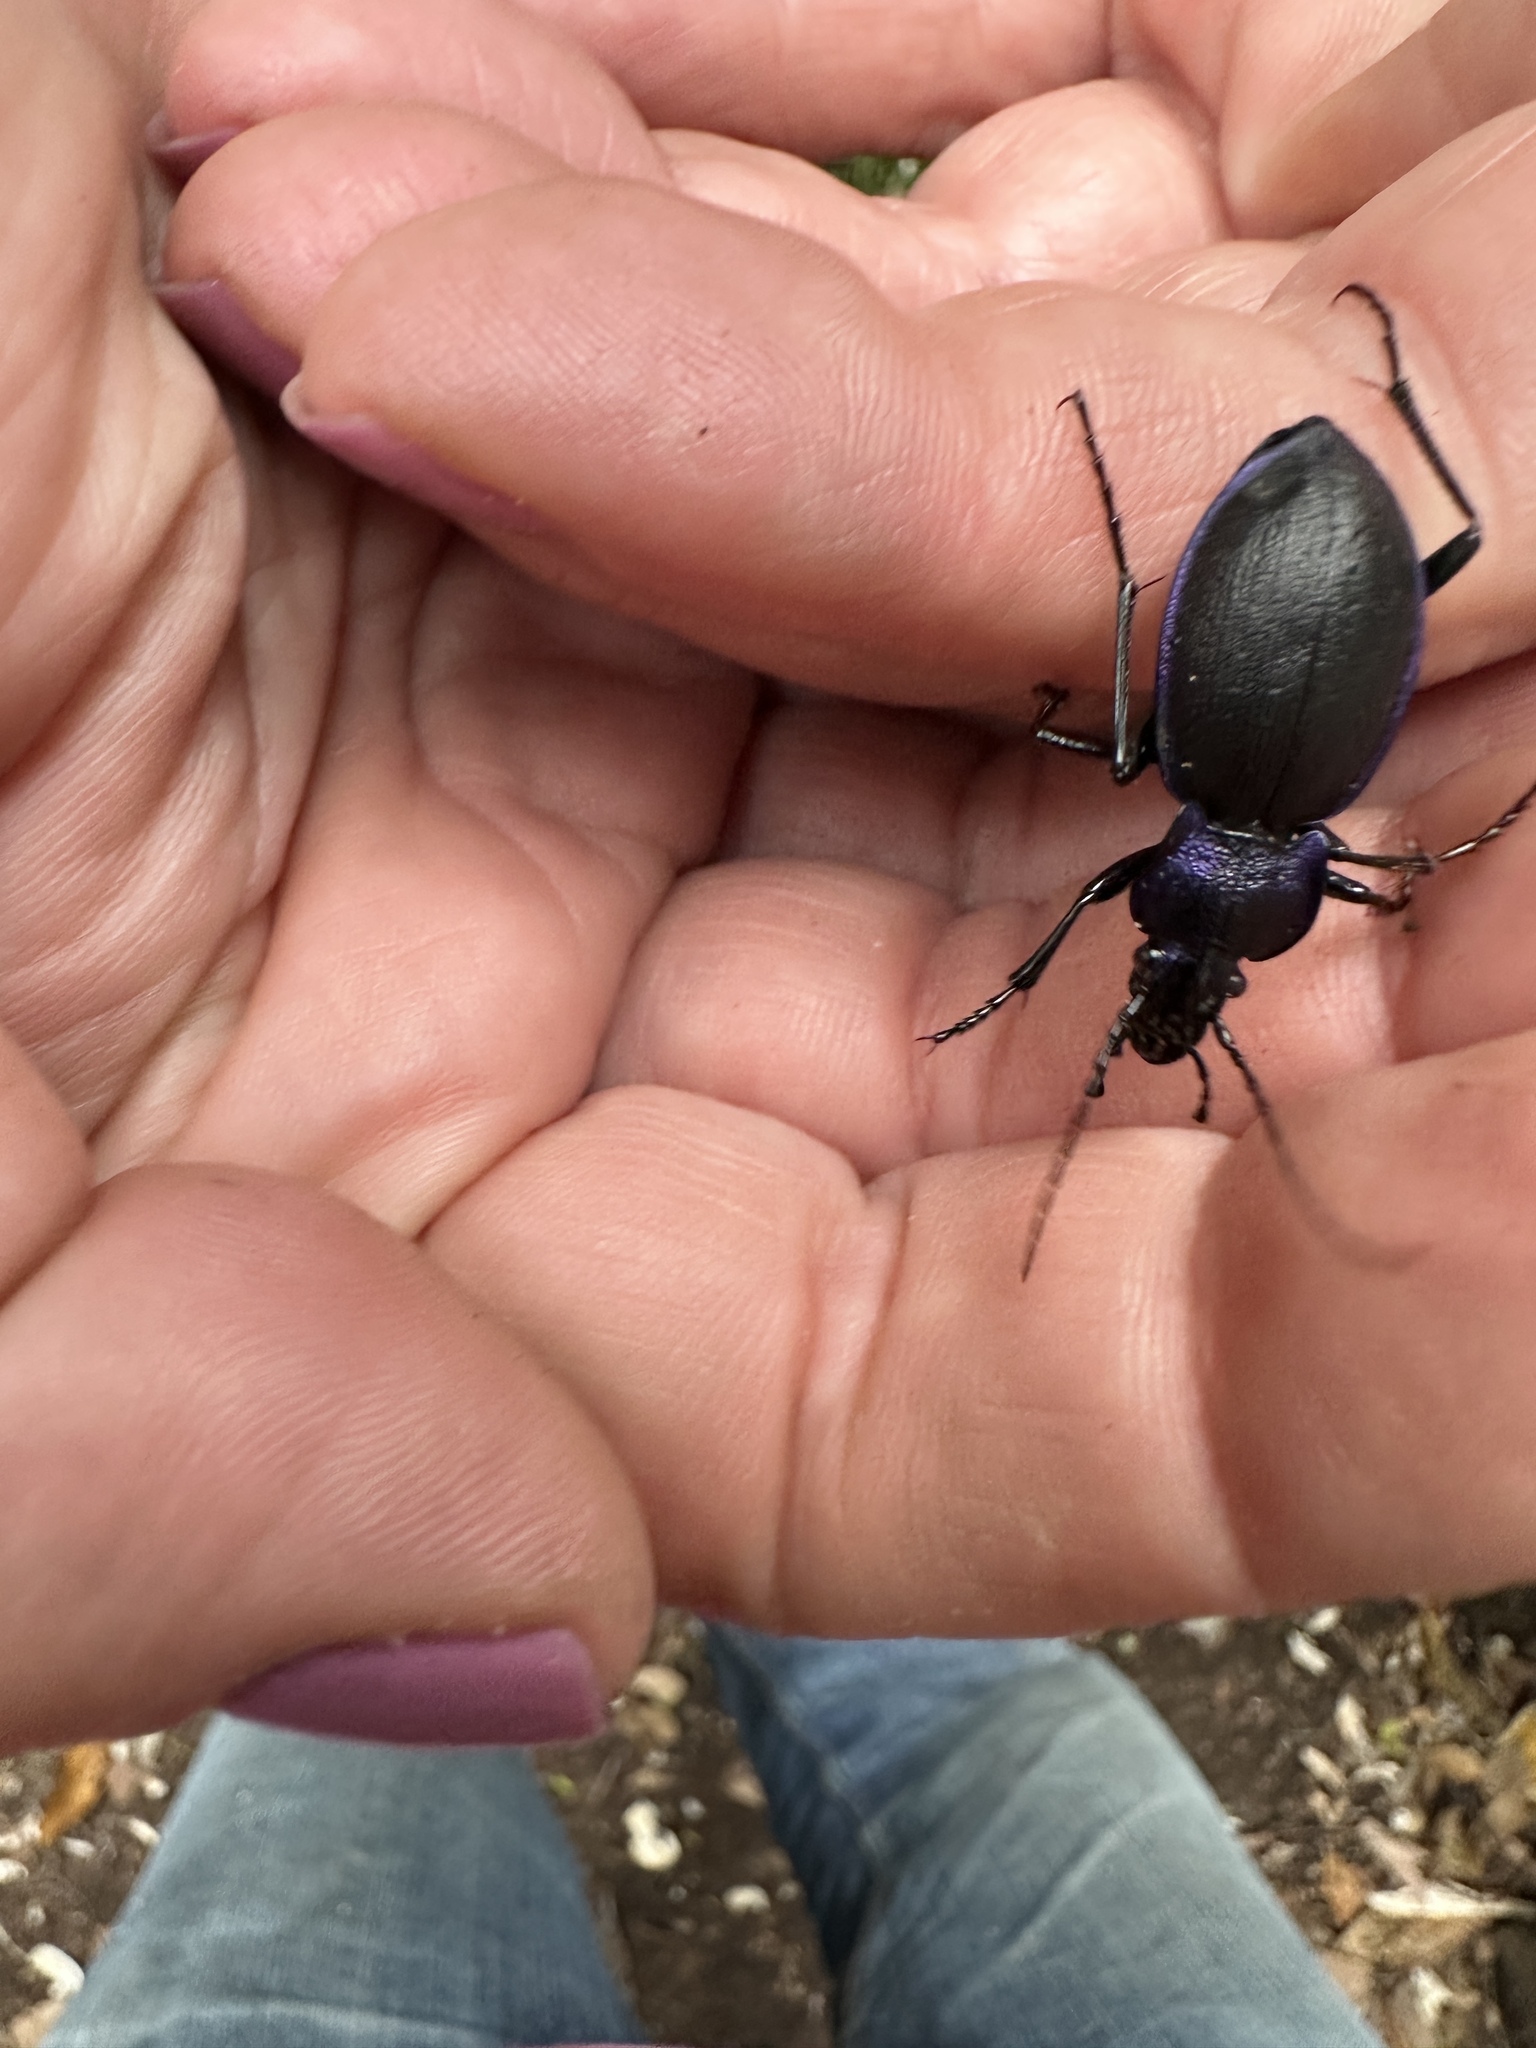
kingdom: Animalia
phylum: Arthropoda
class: Insecta
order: Coleoptera
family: Carabidae
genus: Carabus
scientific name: Carabus problematicus
